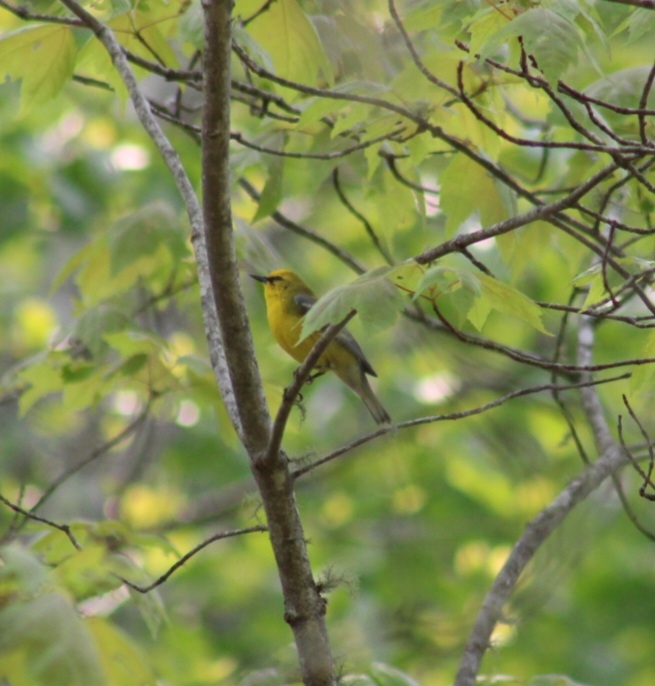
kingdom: Animalia
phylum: Chordata
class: Aves
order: Passeriformes
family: Parulidae
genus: Vermivora
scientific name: Vermivora cyanoptera
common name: Blue-winged warbler
